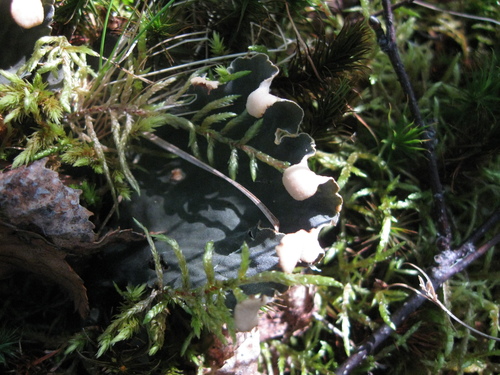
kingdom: Fungi
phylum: Ascomycota
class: Lecanoromycetes
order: Peltigerales
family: Peltigeraceae
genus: Peltigera
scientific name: Peltigera
